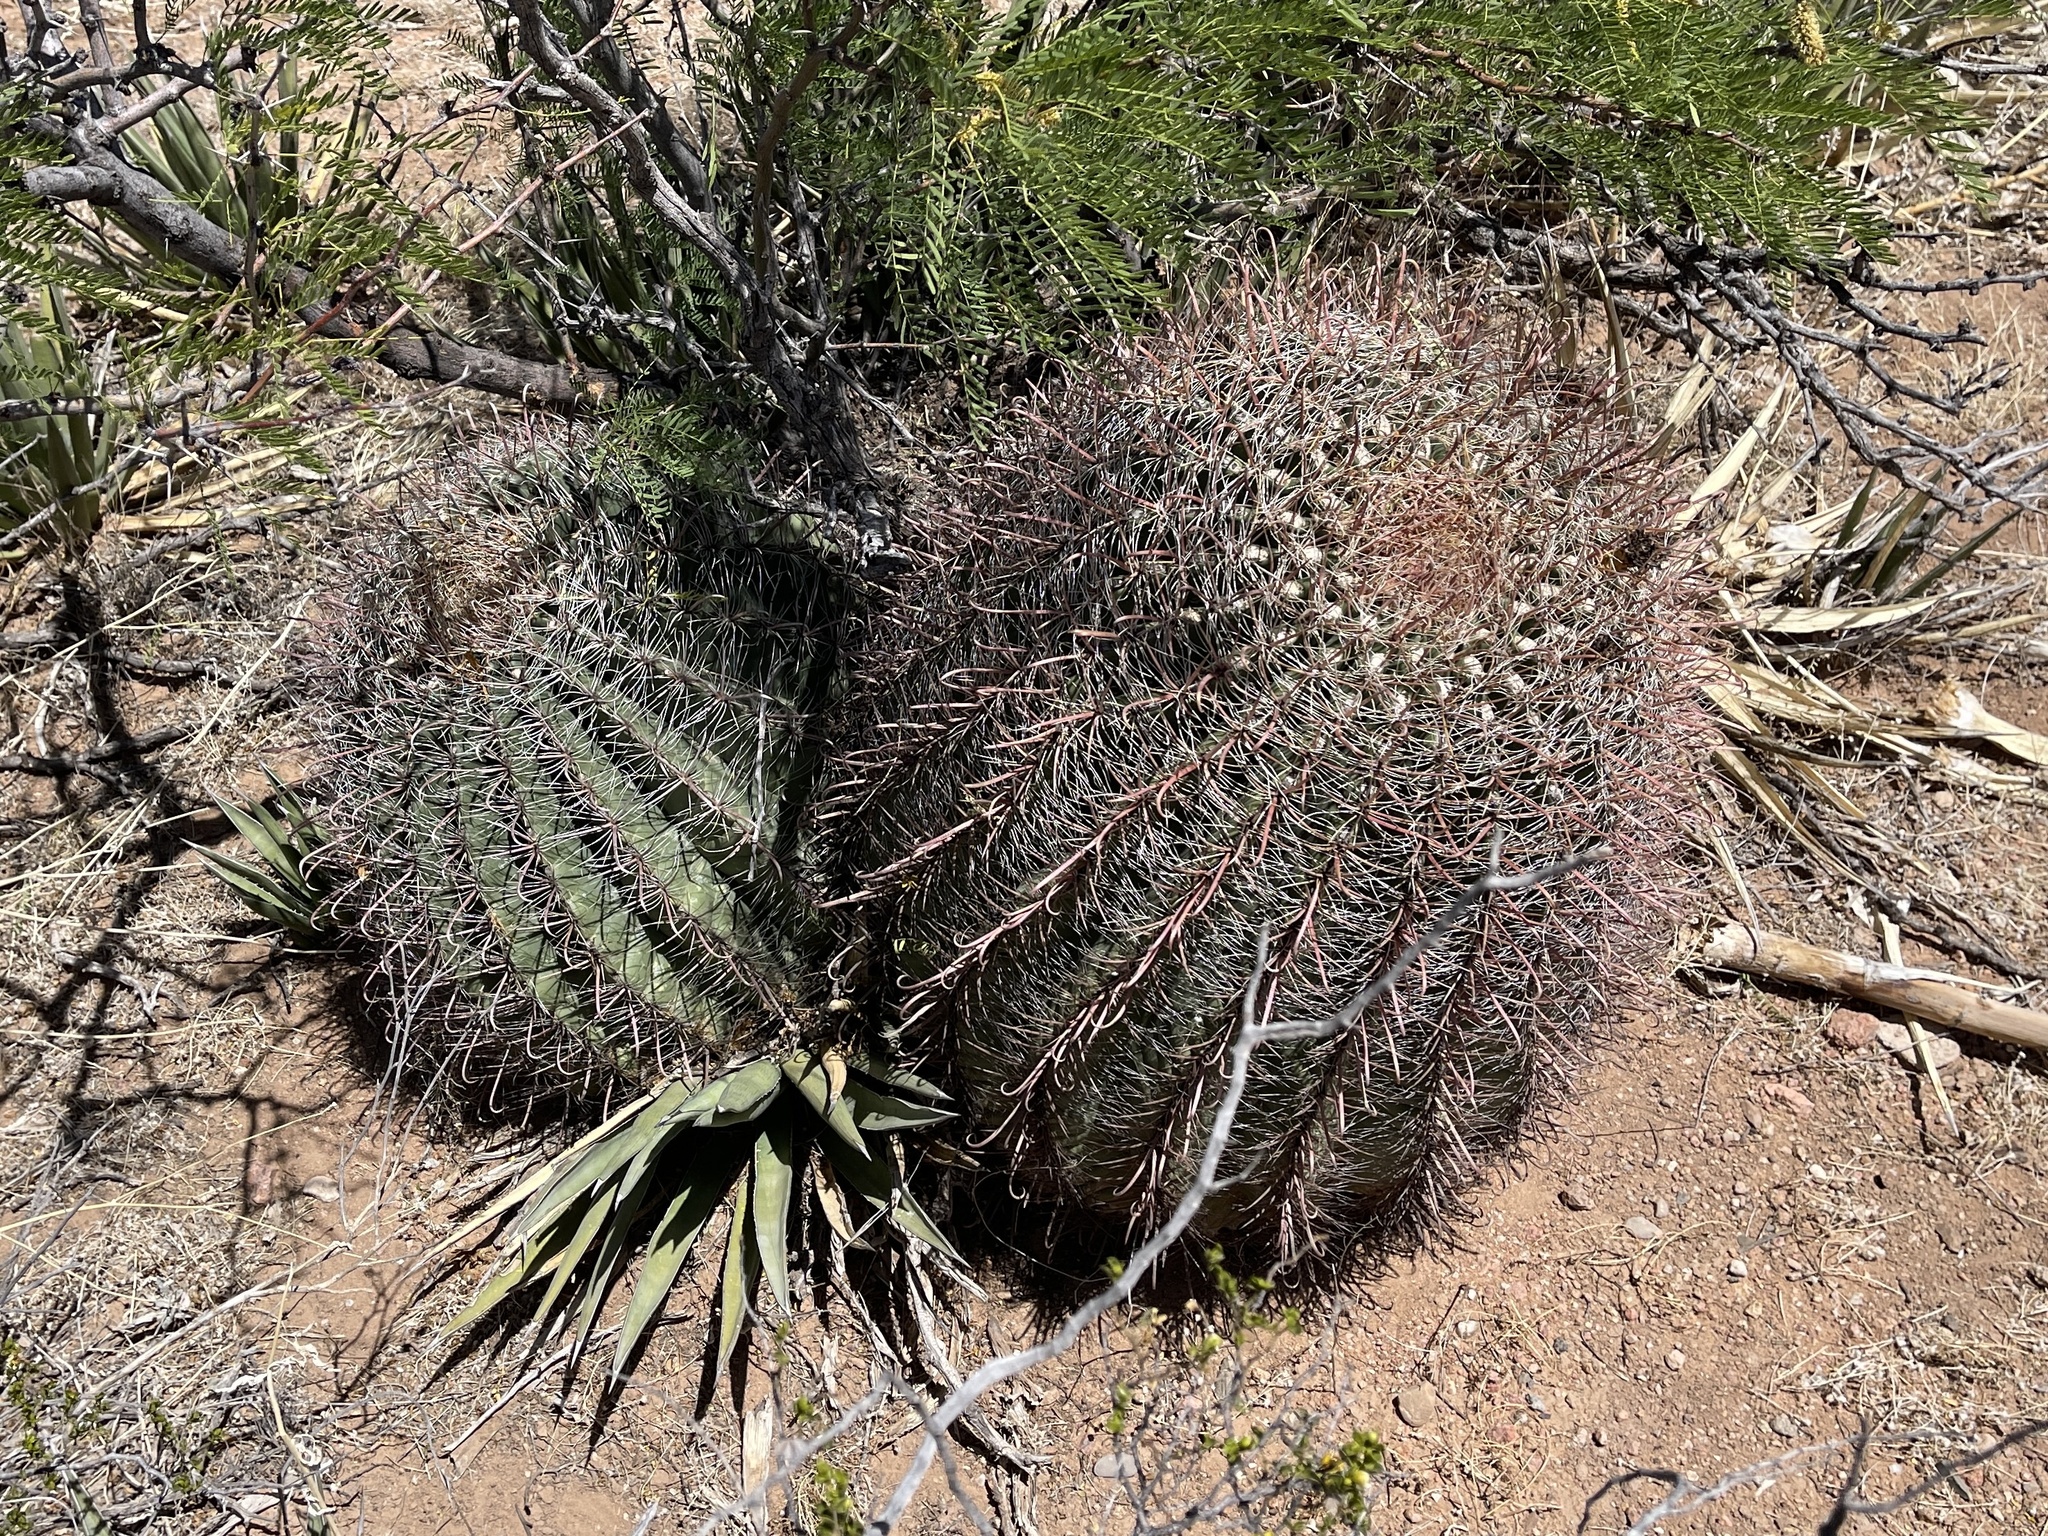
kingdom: Plantae
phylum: Tracheophyta
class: Magnoliopsida
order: Caryophyllales
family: Cactaceae
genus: Ferocactus
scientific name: Ferocactus wislizeni
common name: Candy barrel cactus
